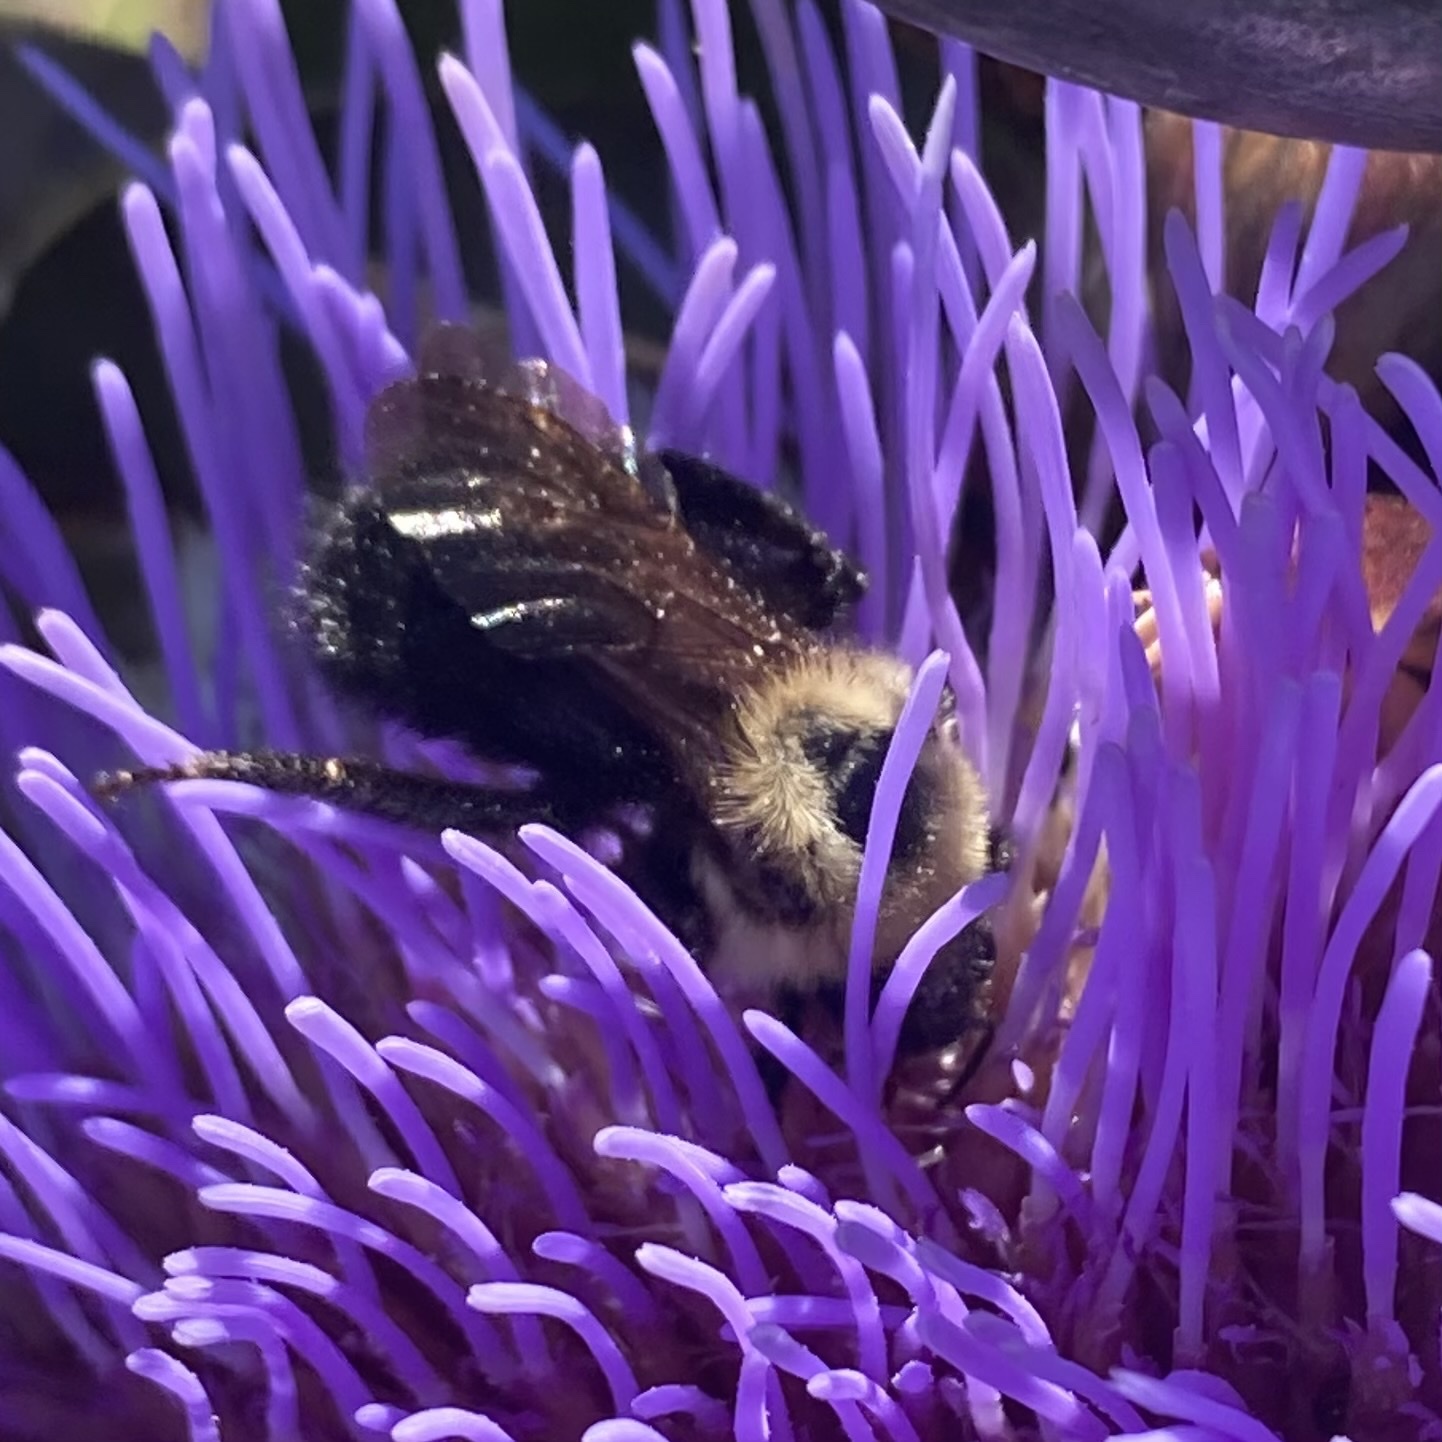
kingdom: Animalia
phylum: Arthropoda
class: Insecta
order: Hymenoptera
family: Apidae
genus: Bombus
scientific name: Bombus citrinus
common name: Lemon cuckoo bumble bee
